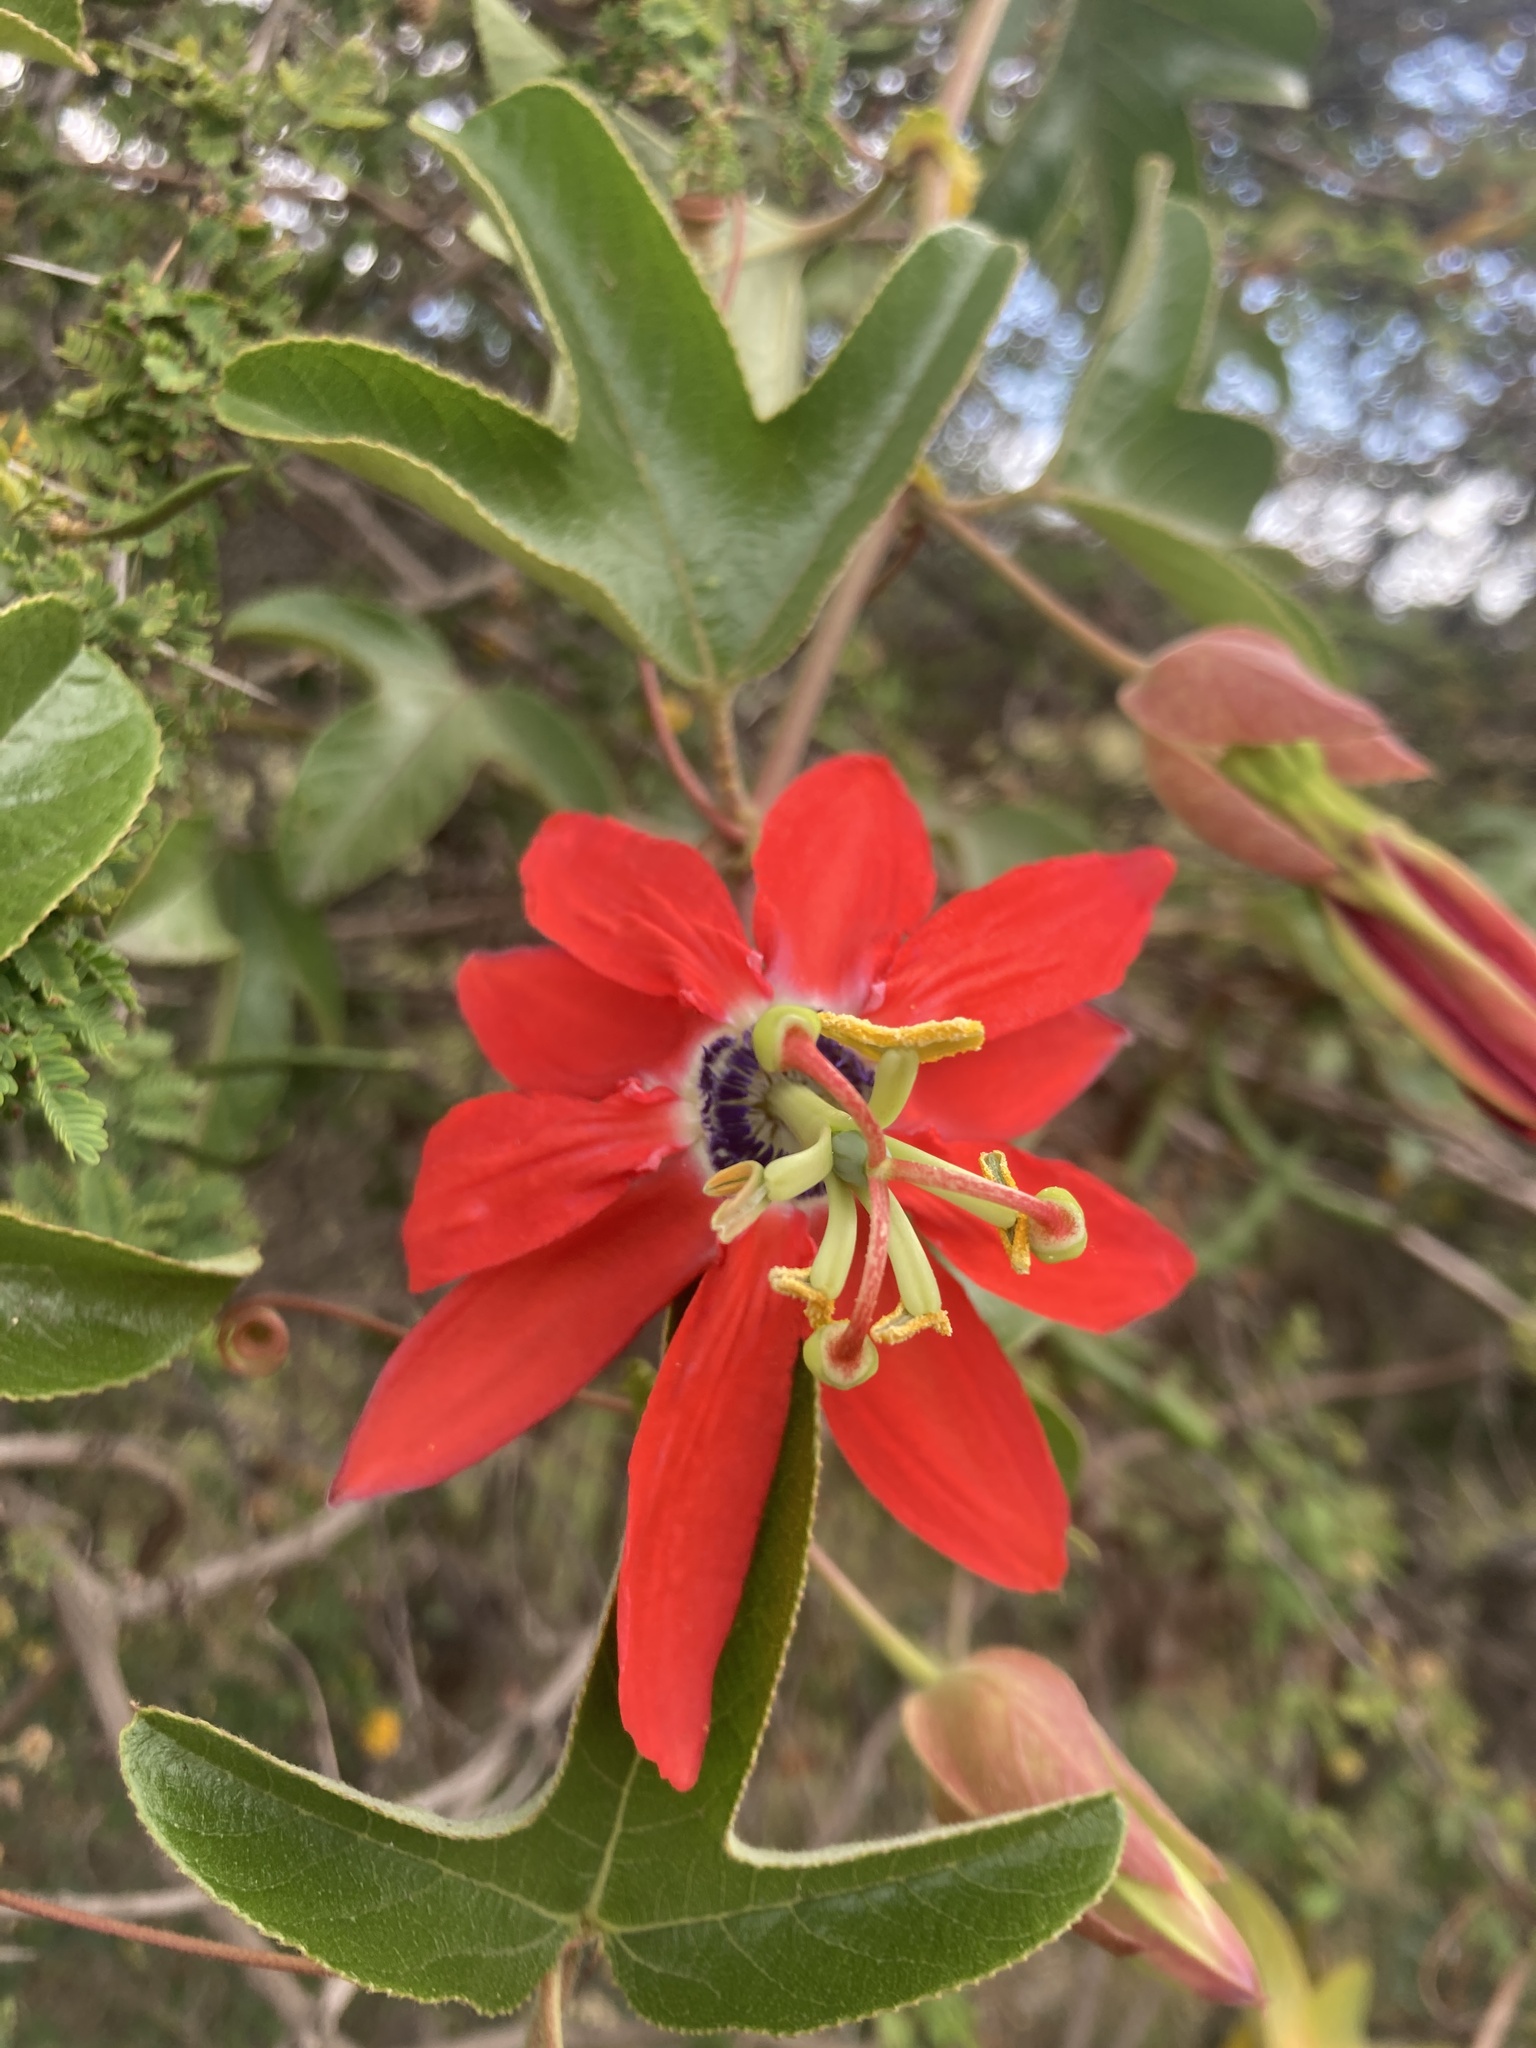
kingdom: Plantae
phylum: Tracheophyta
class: Magnoliopsida
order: Malpighiales
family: Passifloraceae
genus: Passiflora
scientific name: Passiflora manicata
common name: Red passionflower
